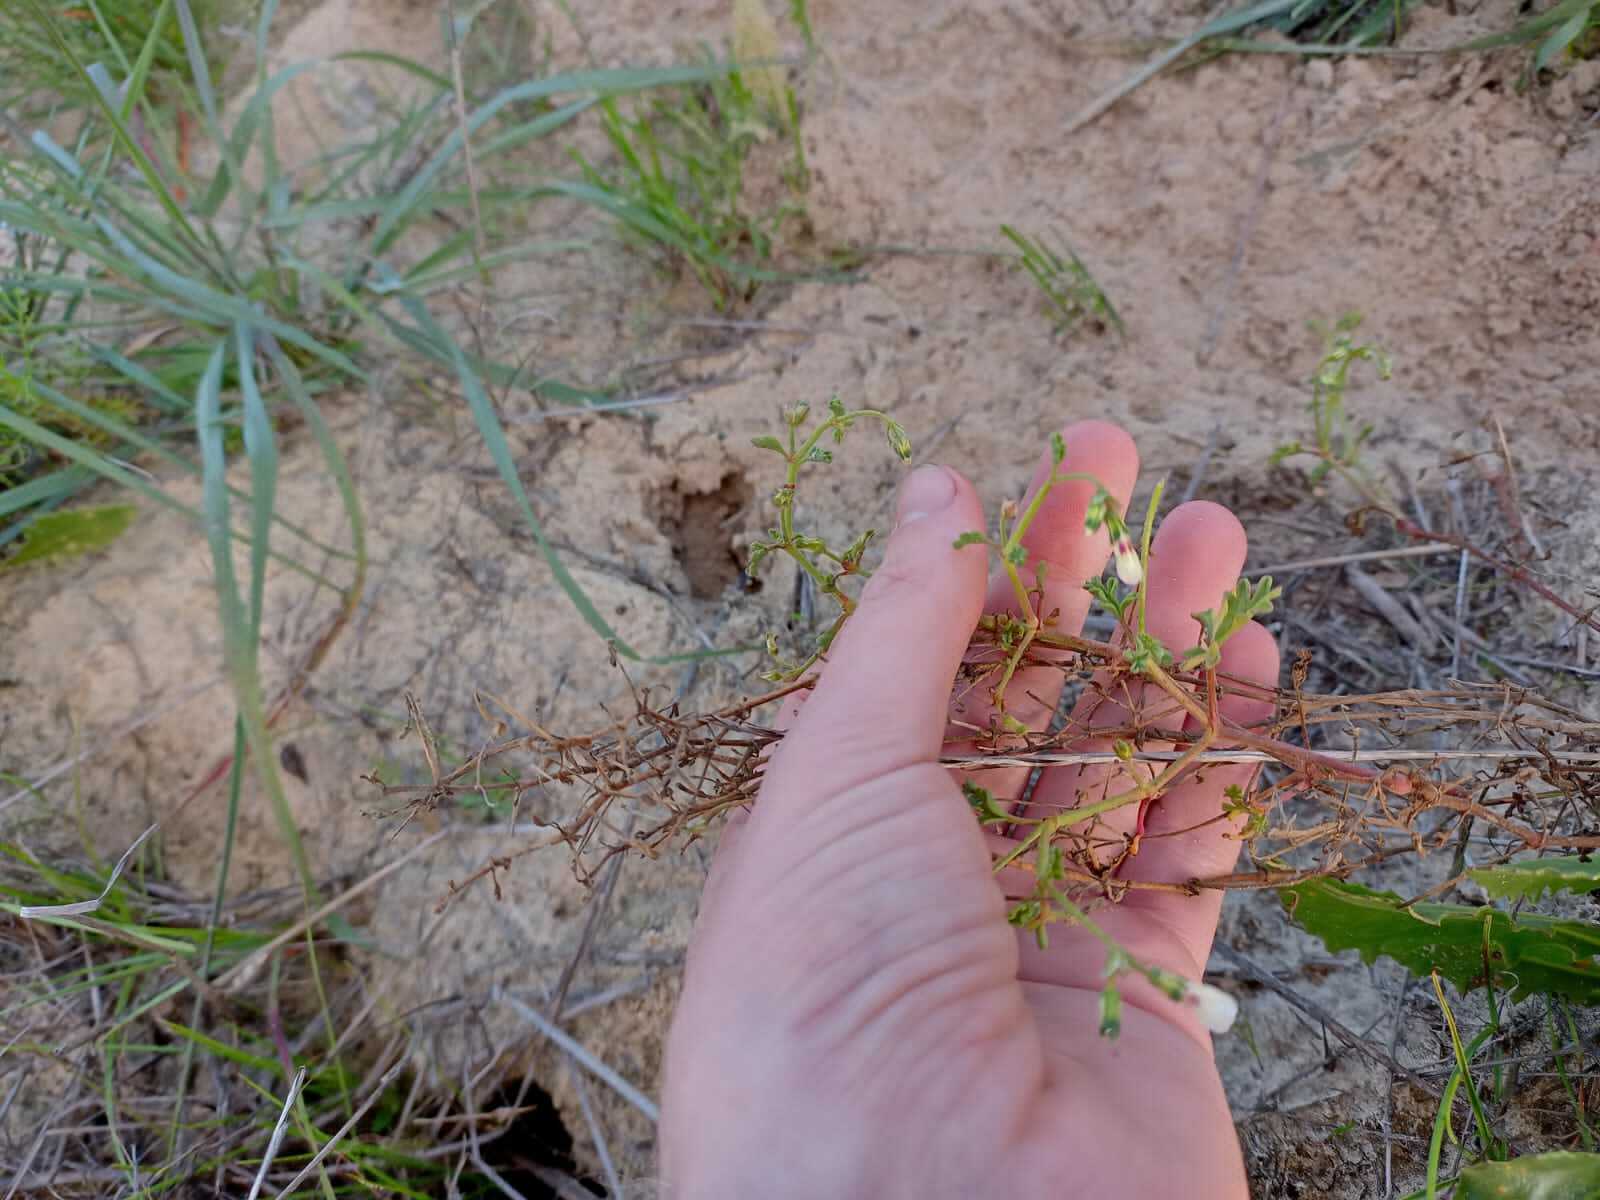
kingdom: Plantae
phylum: Tracheophyta
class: Magnoliopsida
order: Geraniales
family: Geraniaceae
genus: Pelargonium
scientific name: Pelargonium senecioides
